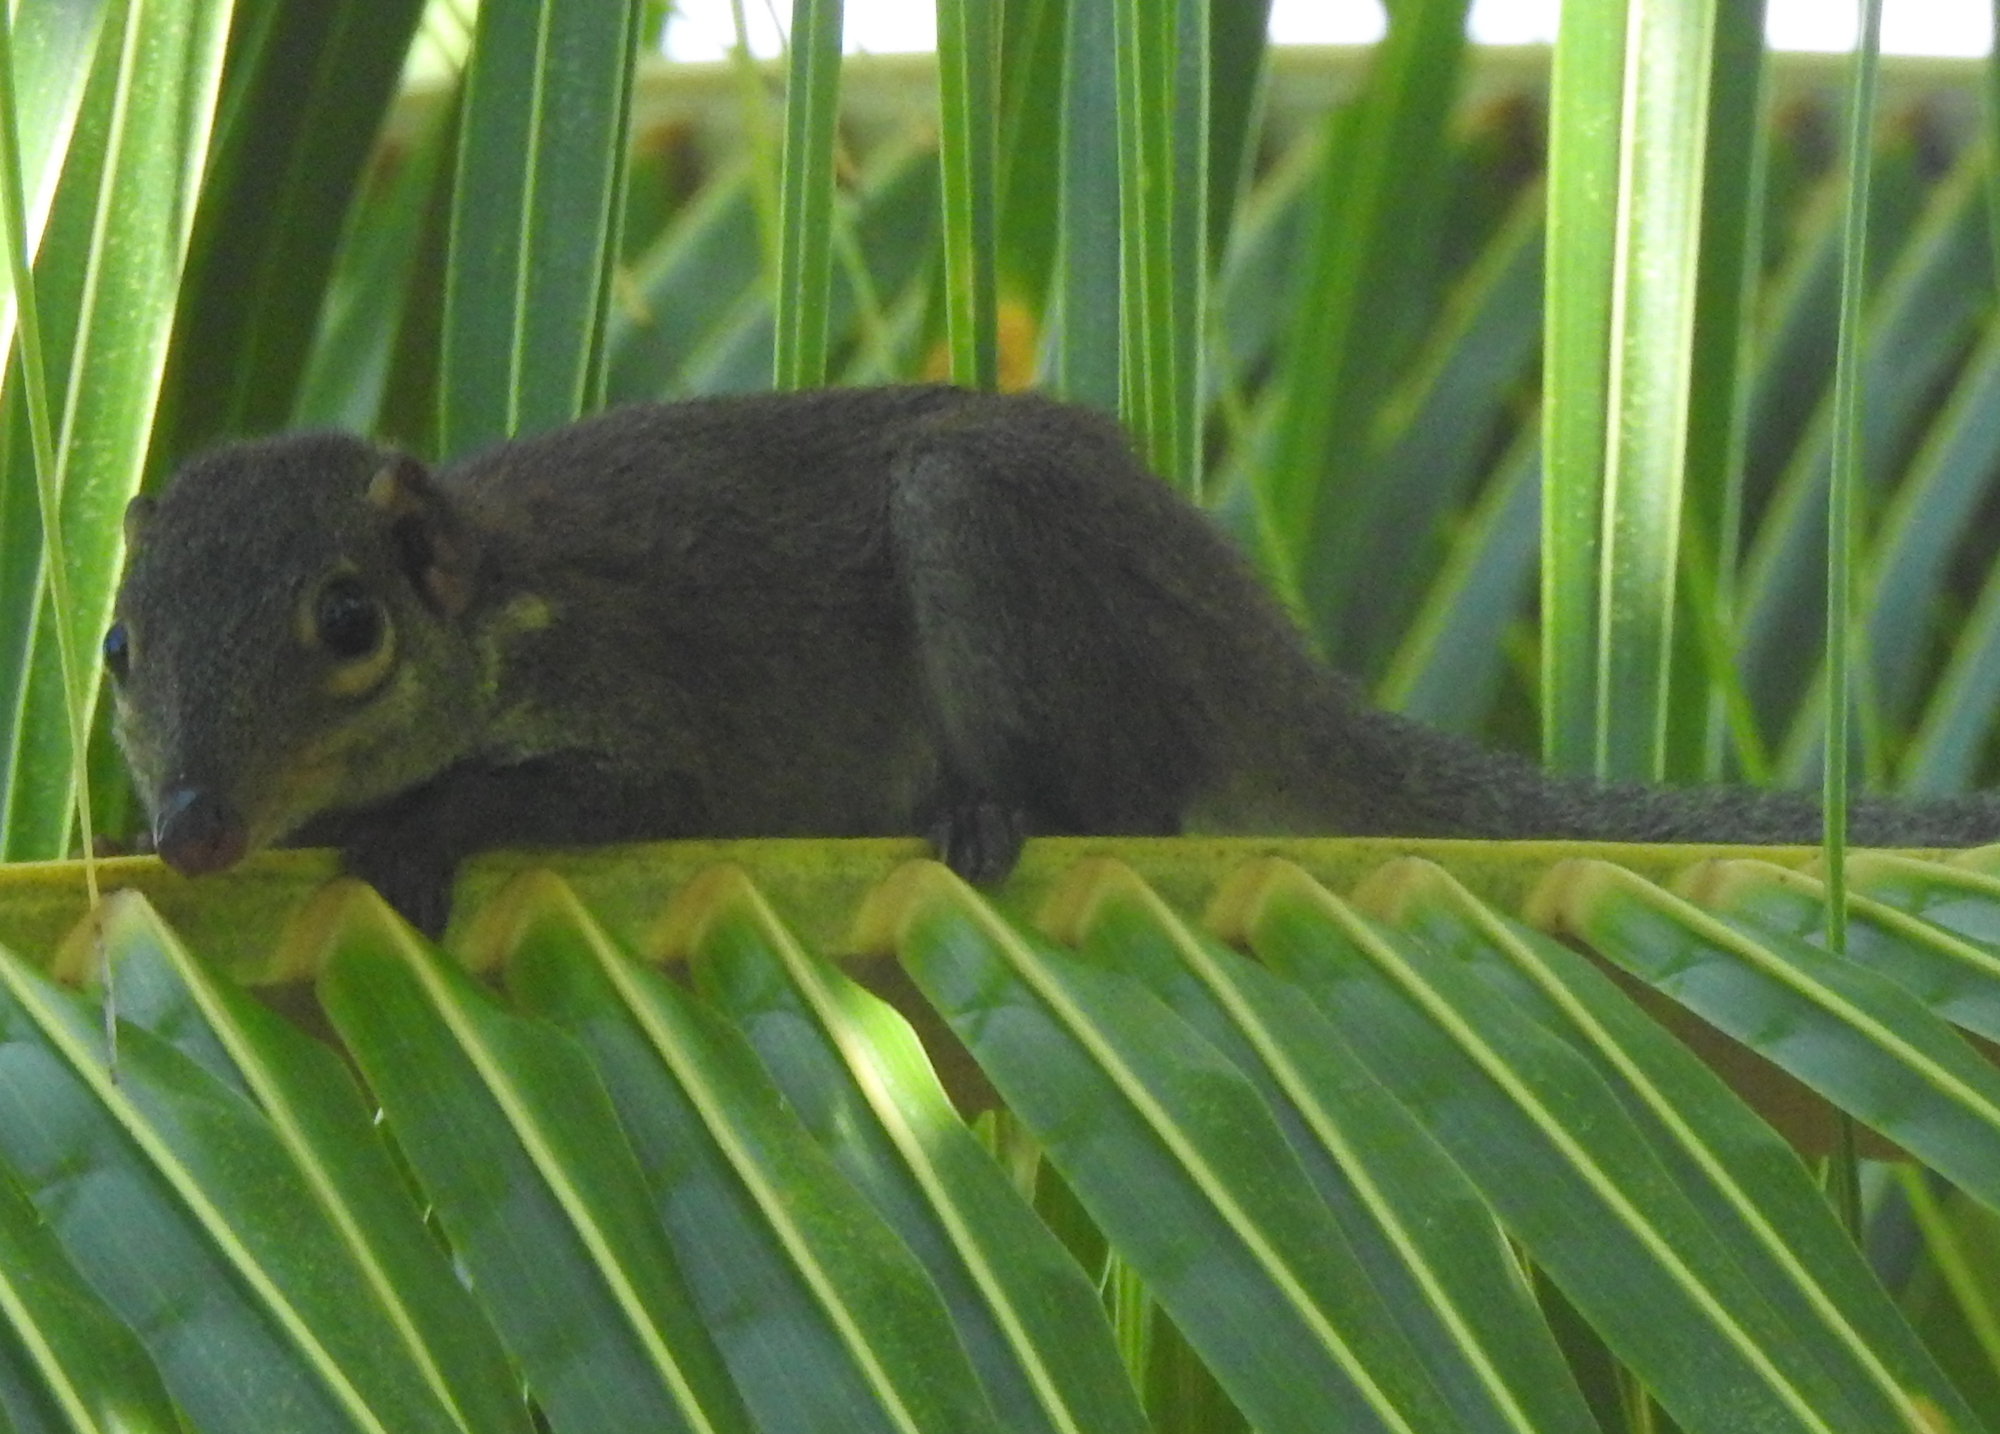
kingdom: Animalia
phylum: Chordata
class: Mammalia
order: Scandentia
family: Tupaiidae
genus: Tupaia
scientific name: Tupaia glis
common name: Common treeshrew
